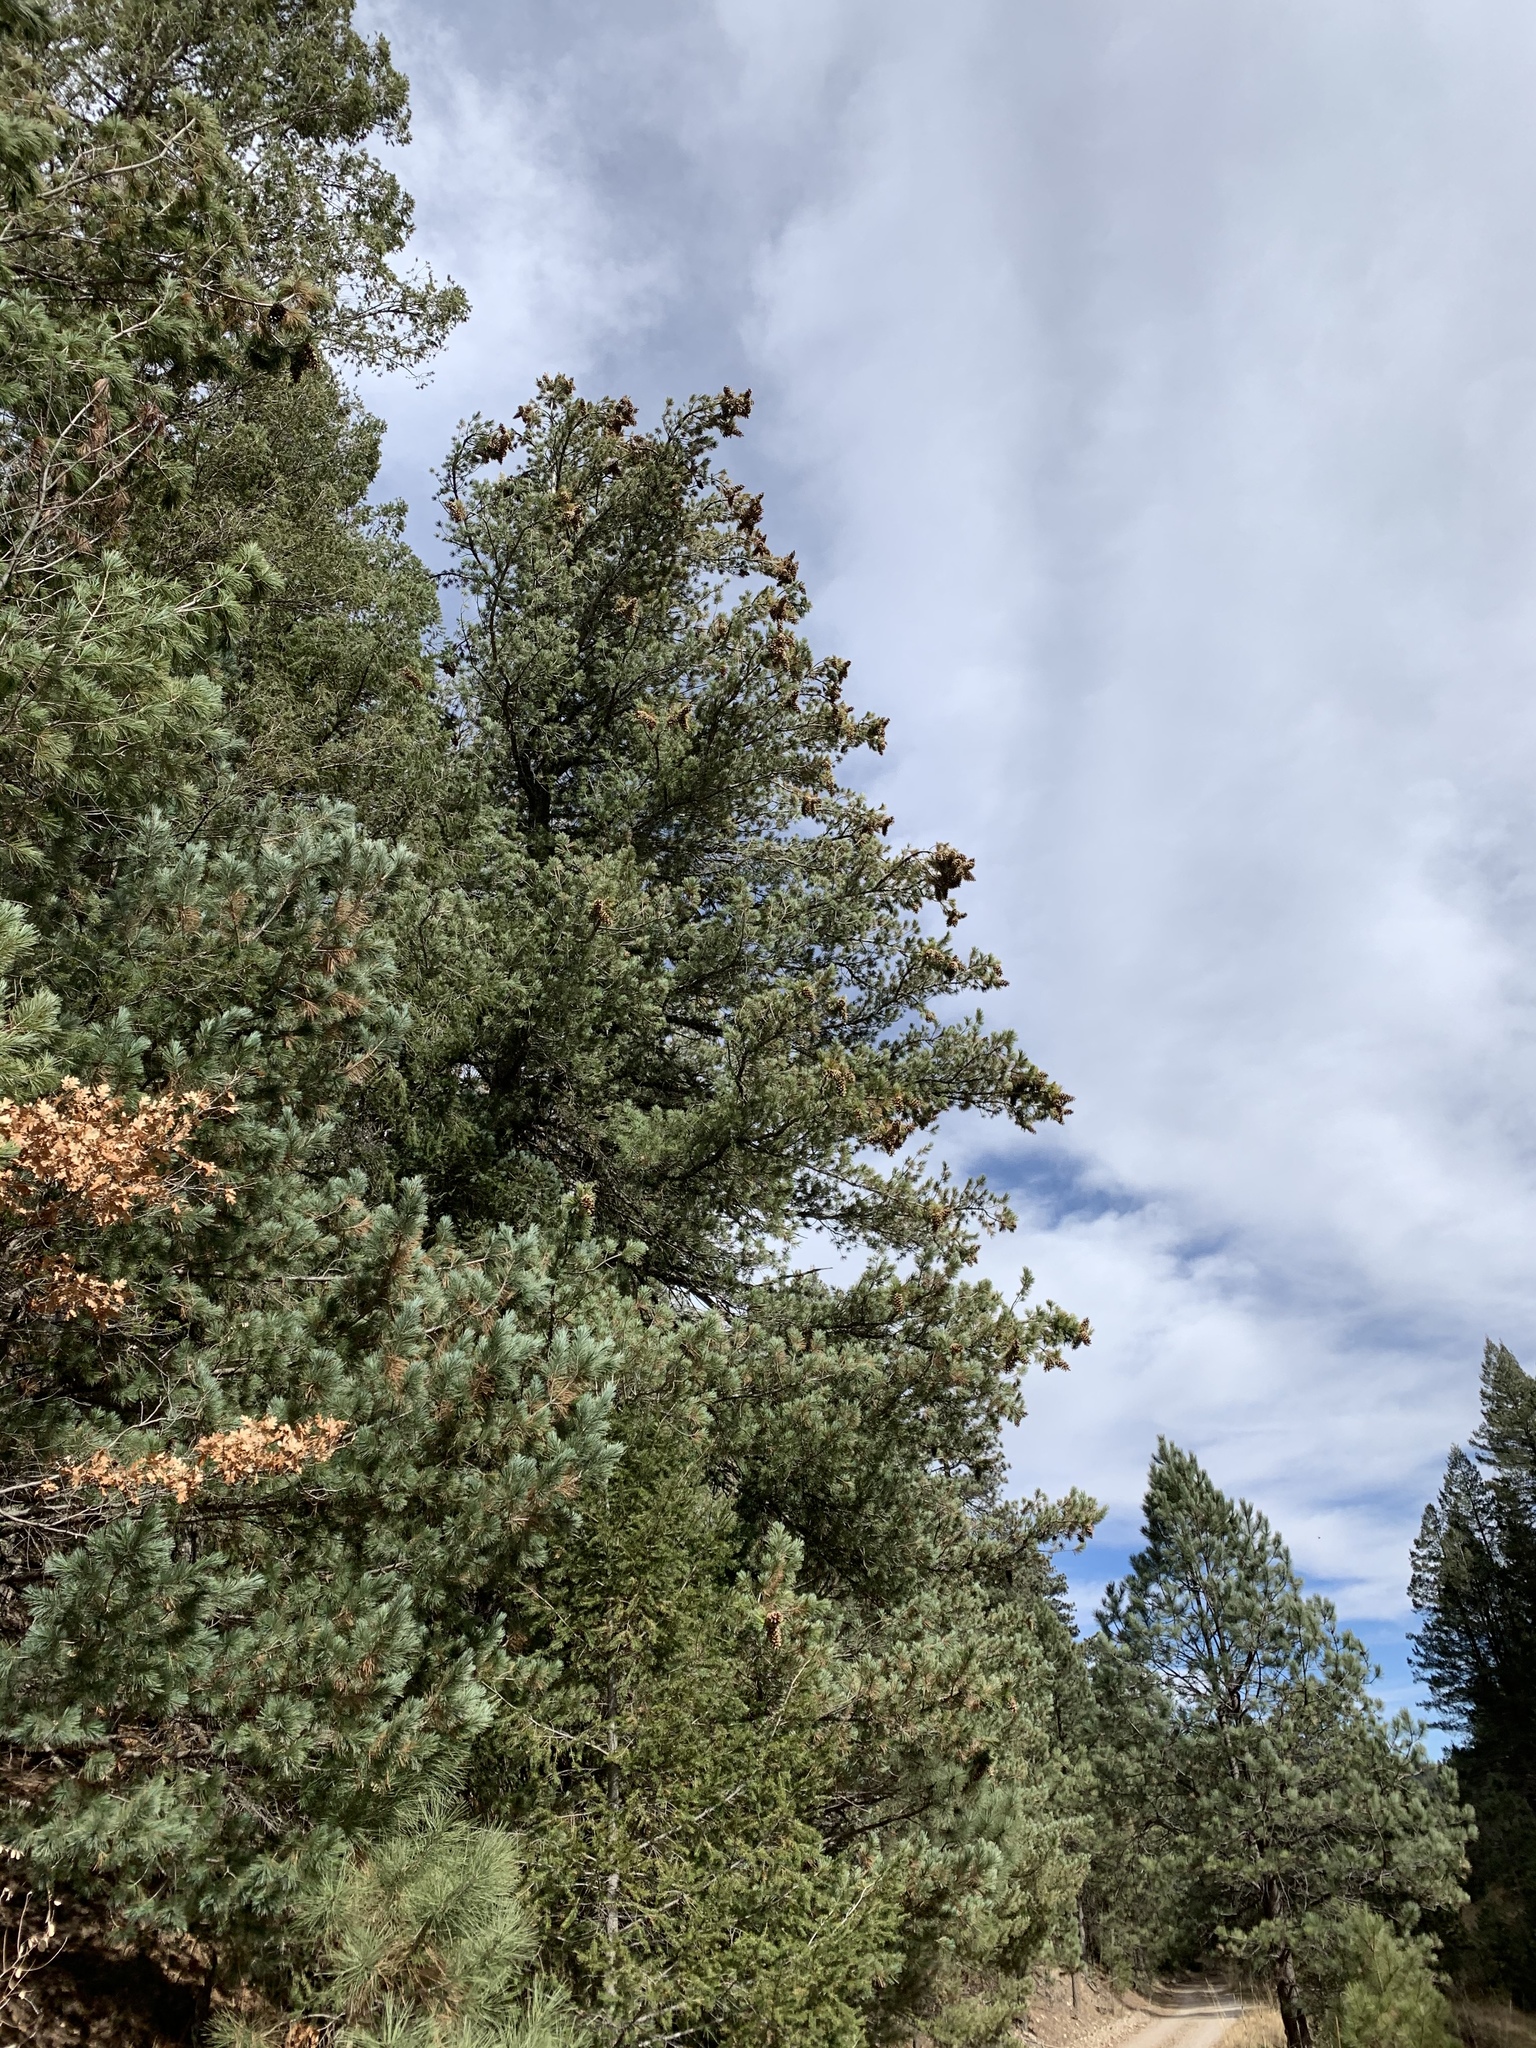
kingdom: Plantae
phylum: Tracheophyta
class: Pinopsida
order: Pinales
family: Pinaceae
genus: Pinus
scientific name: Pinus strobiformis
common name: Southwestern white pine
